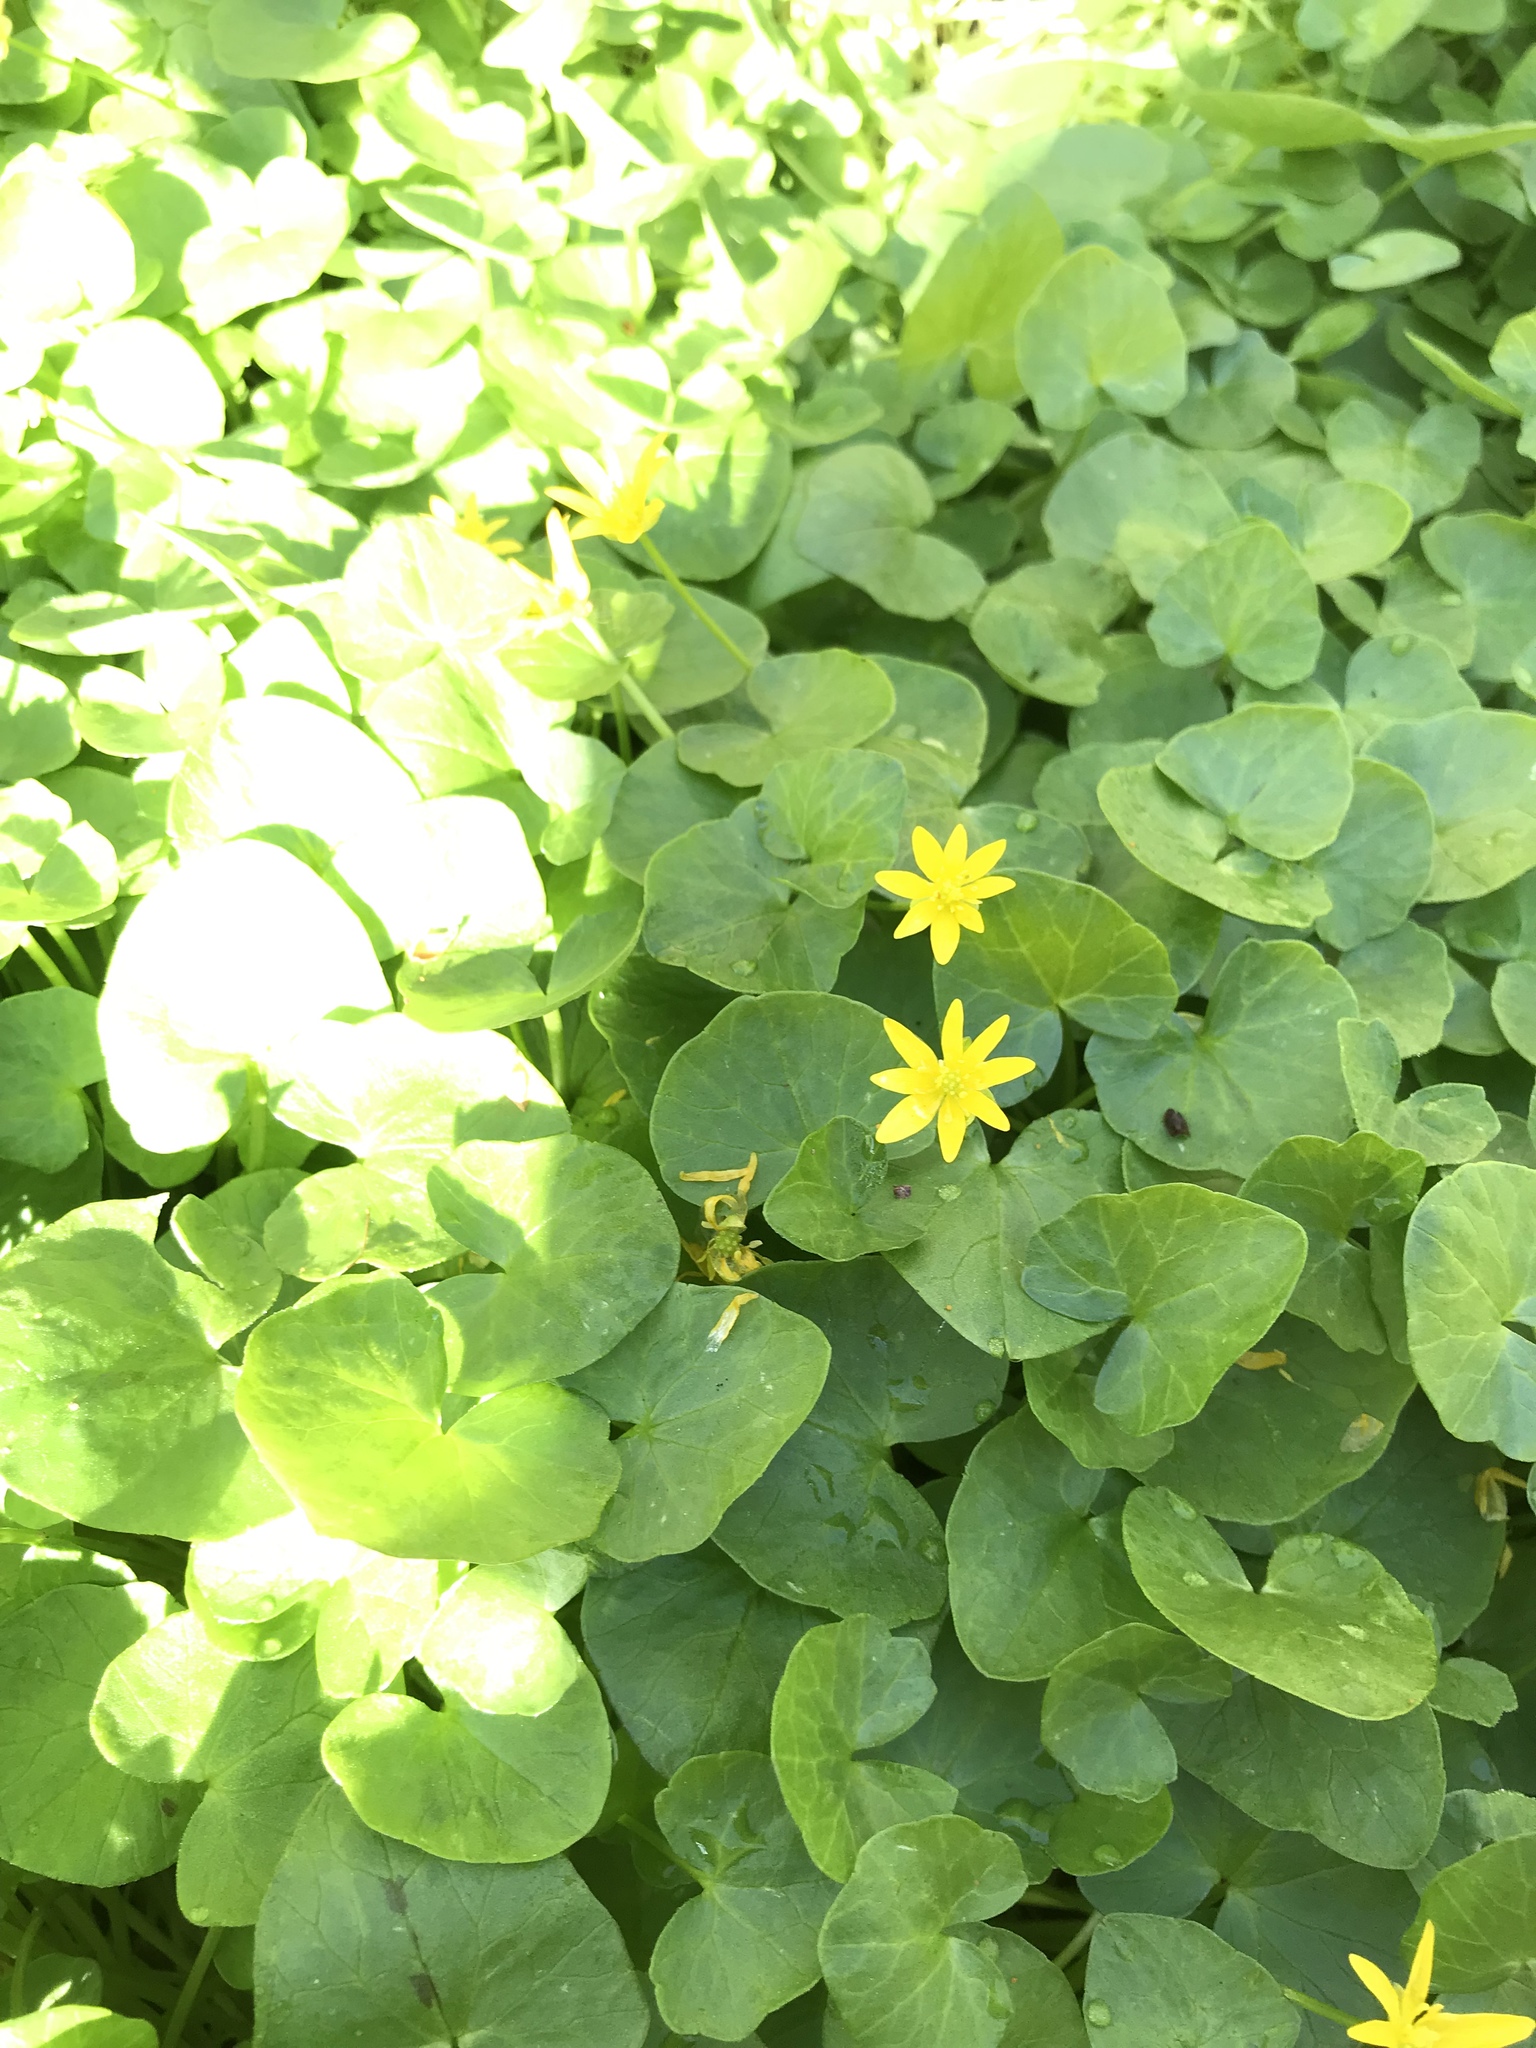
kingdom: Plantae
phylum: Tracheophyta
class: Magnoliopsida
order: Ranunculales
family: Ranunculaceae
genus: Ficaria
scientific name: Ficaria verna
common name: Lesser celandine
